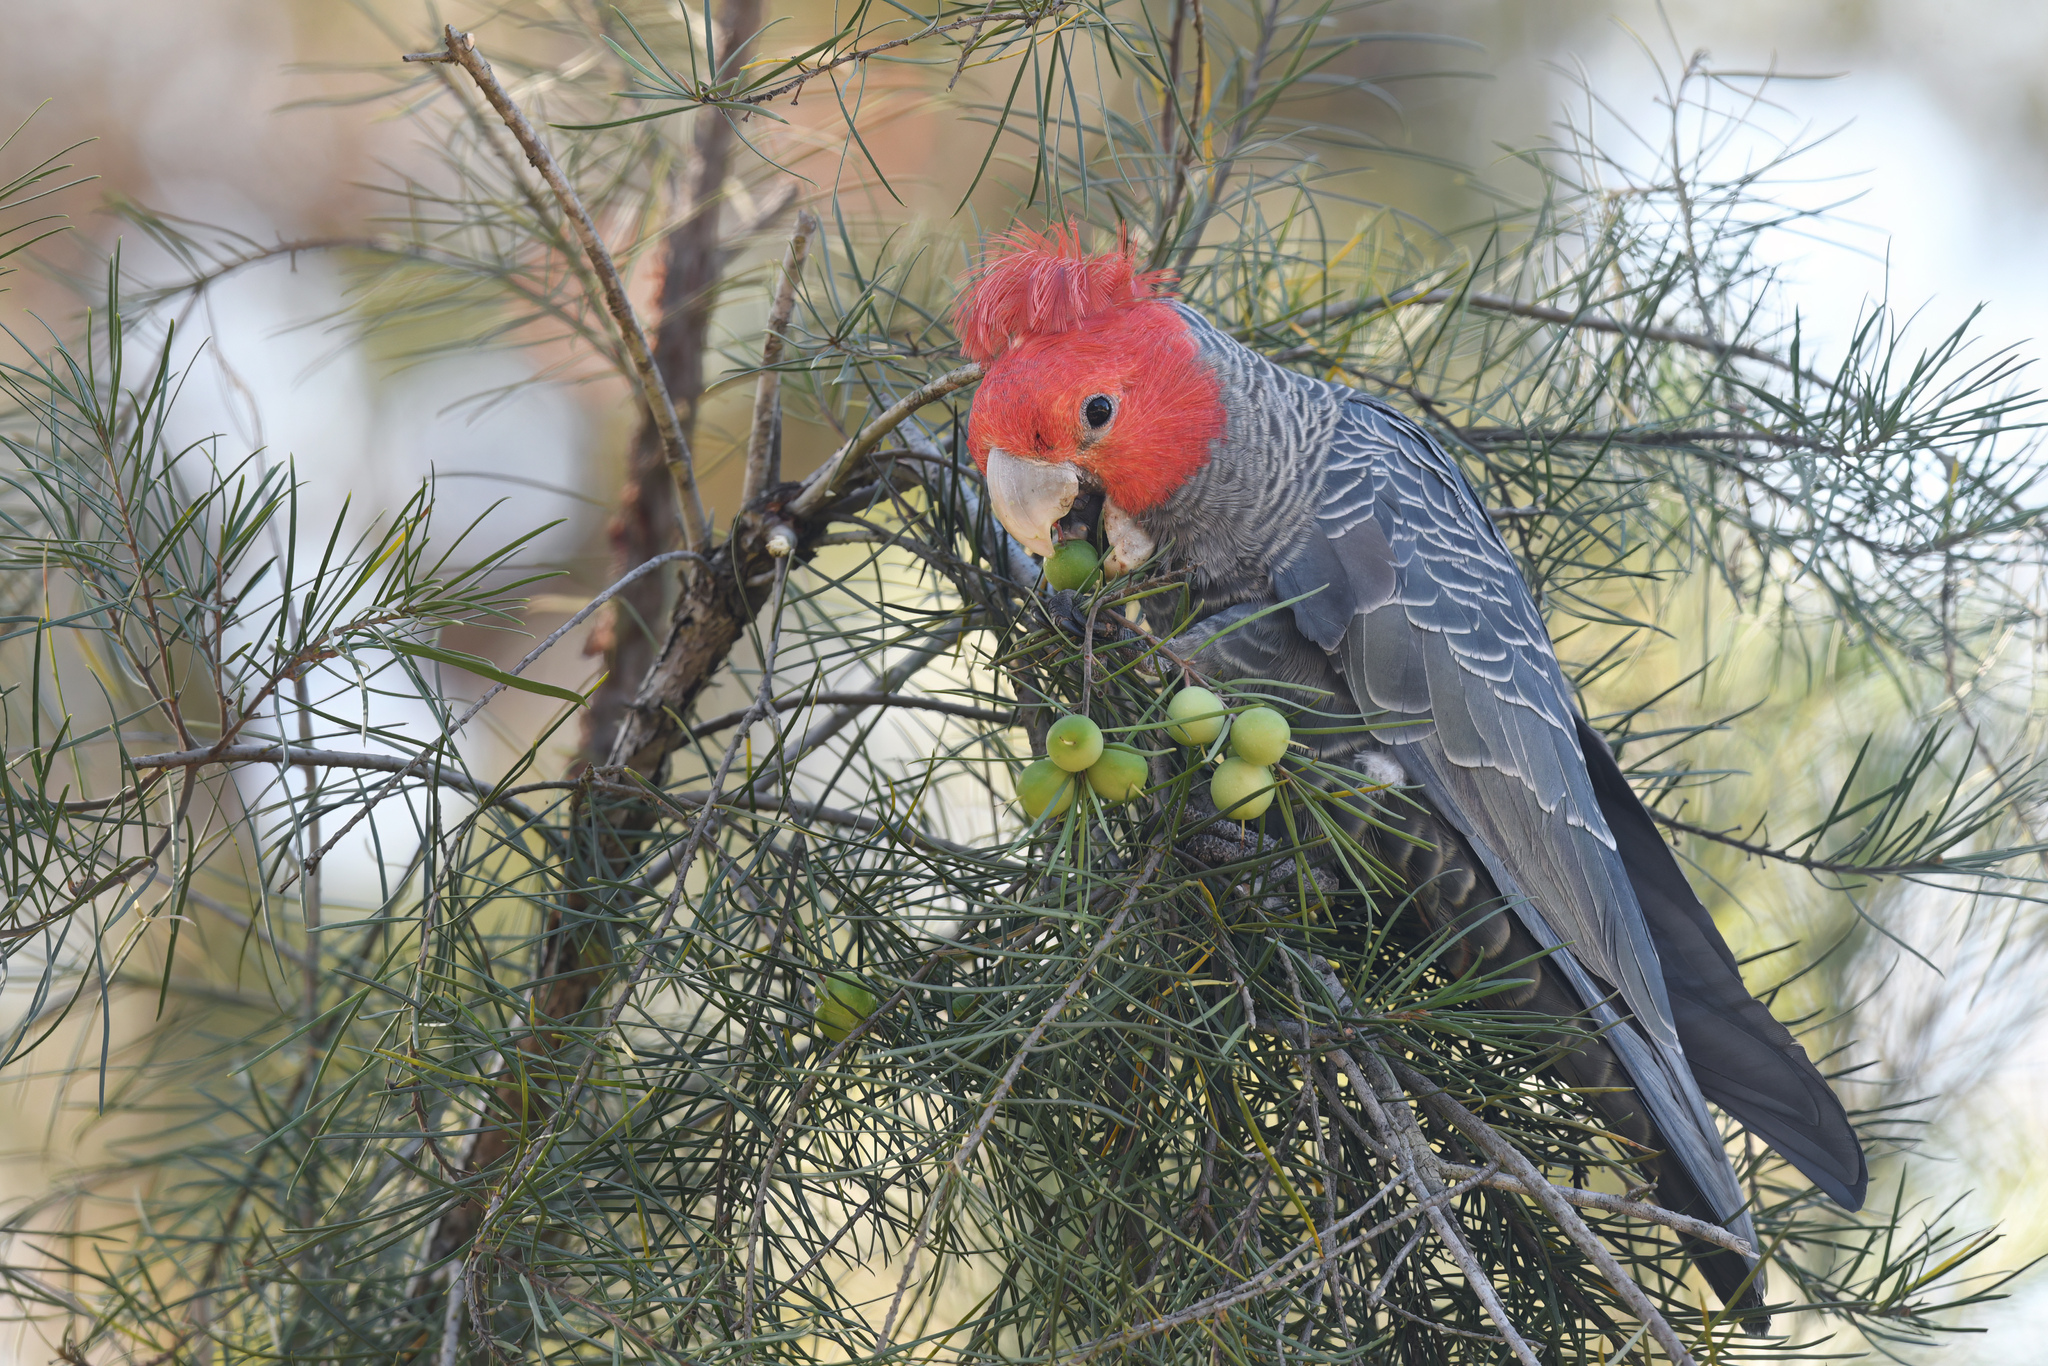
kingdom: Animalia
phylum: Chordata
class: Aves
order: Psittaciformes
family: Psittacidae
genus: Callocephalon
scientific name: Callocephalon fimbriatum
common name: Gang-gang cockatoo
